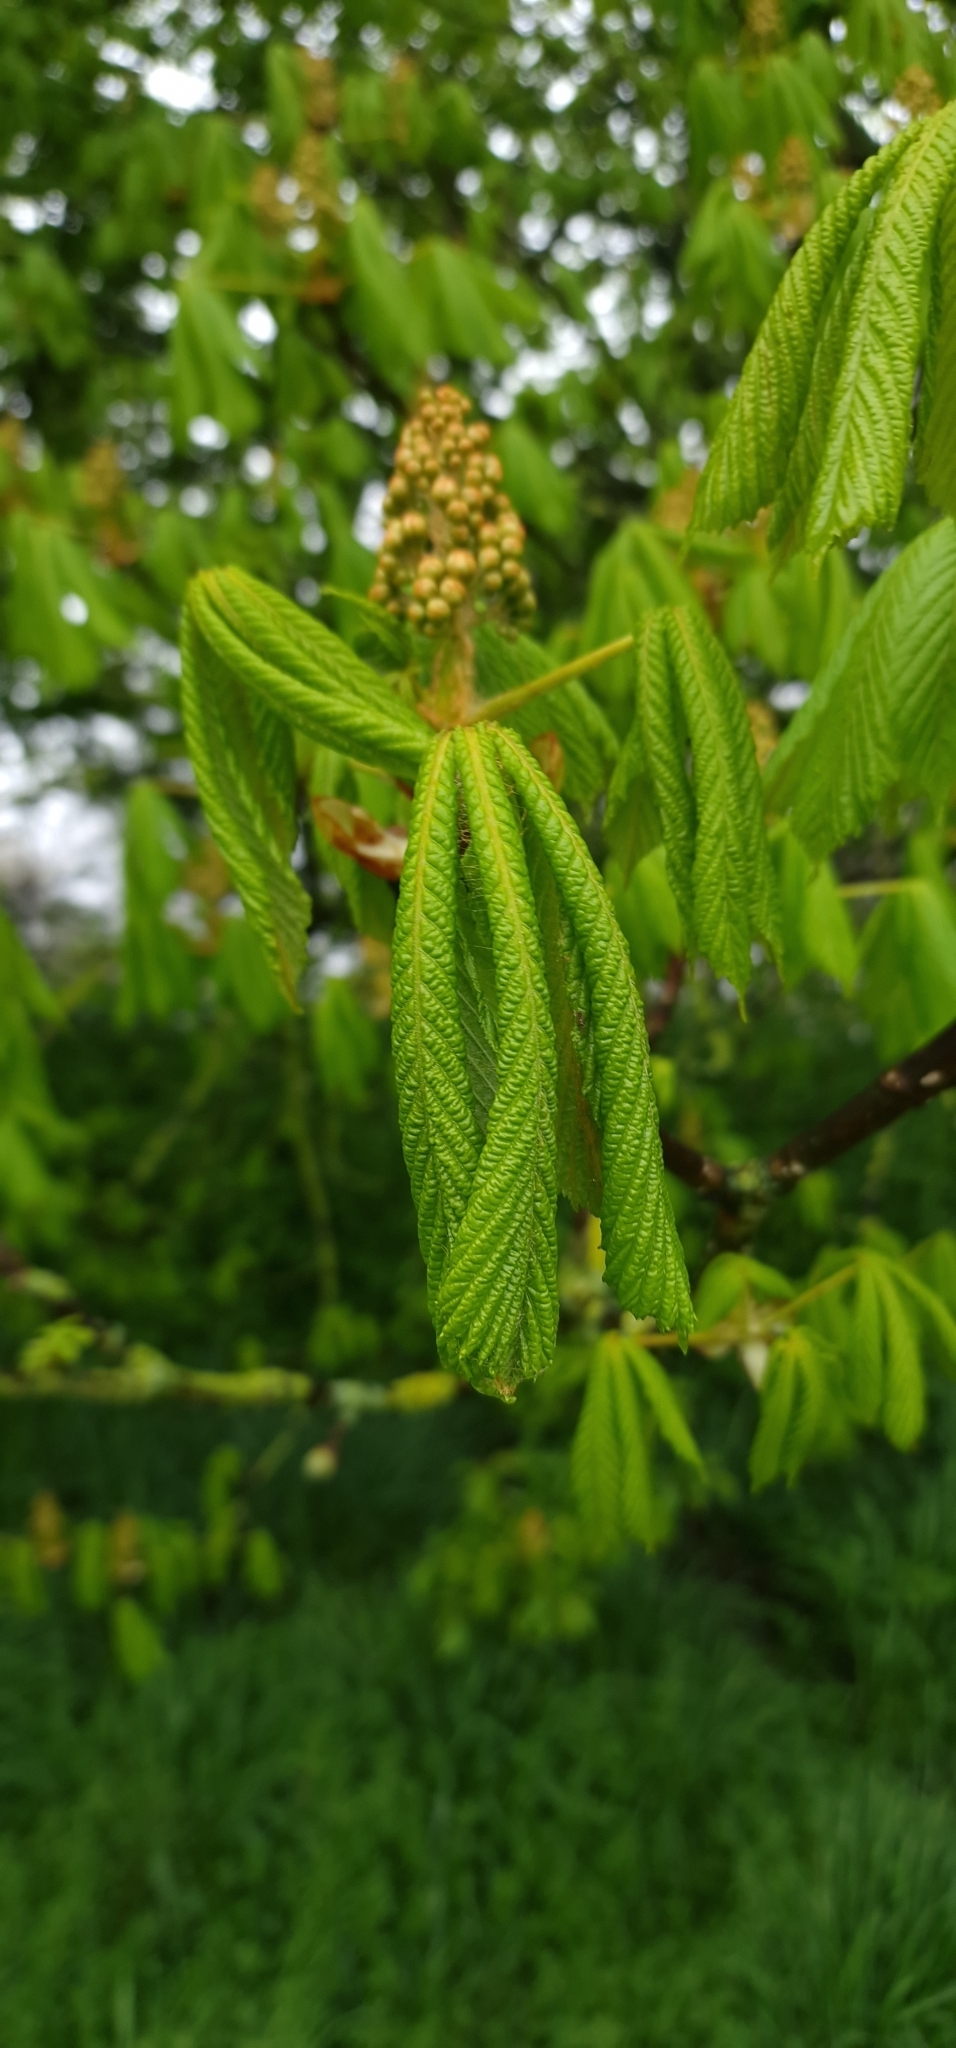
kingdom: Plantae
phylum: Tracheophyta
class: Magnoliopsida
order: Sapindales
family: Sapindaceae
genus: Aesculus
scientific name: Aesculus hippocastanum
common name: Horse-chestnut
